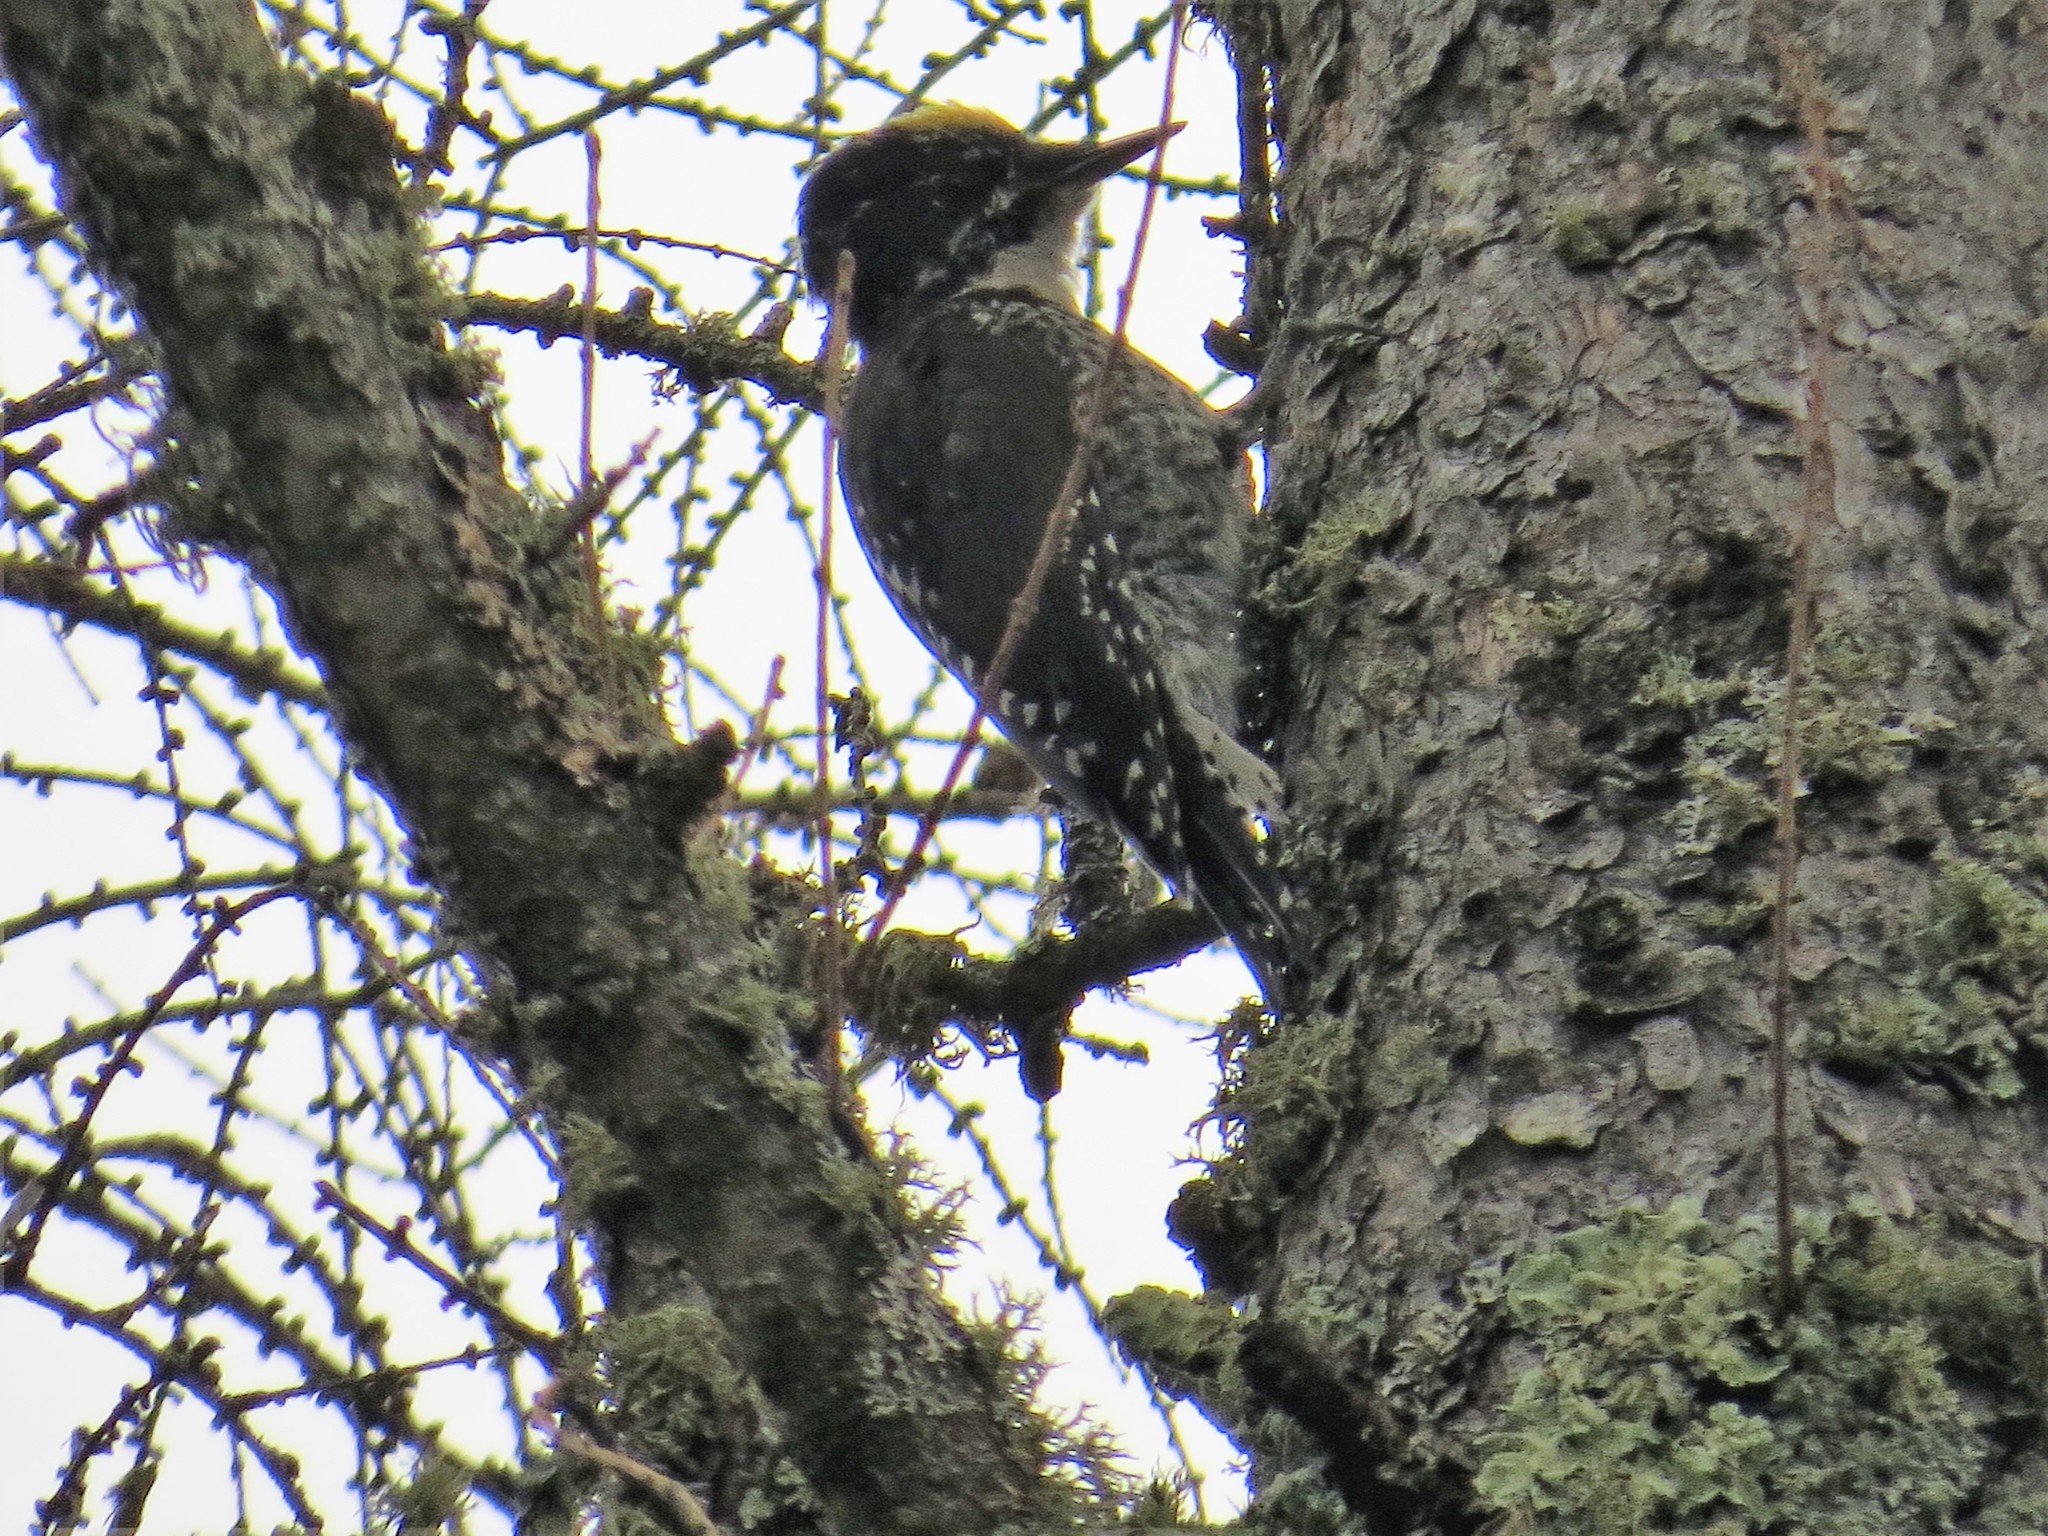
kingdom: Animalia
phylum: Chordata
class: Aves
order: Piciformes
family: Picidae
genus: Picoides
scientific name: Picoides dorsalis
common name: American three-toed woodpecker
